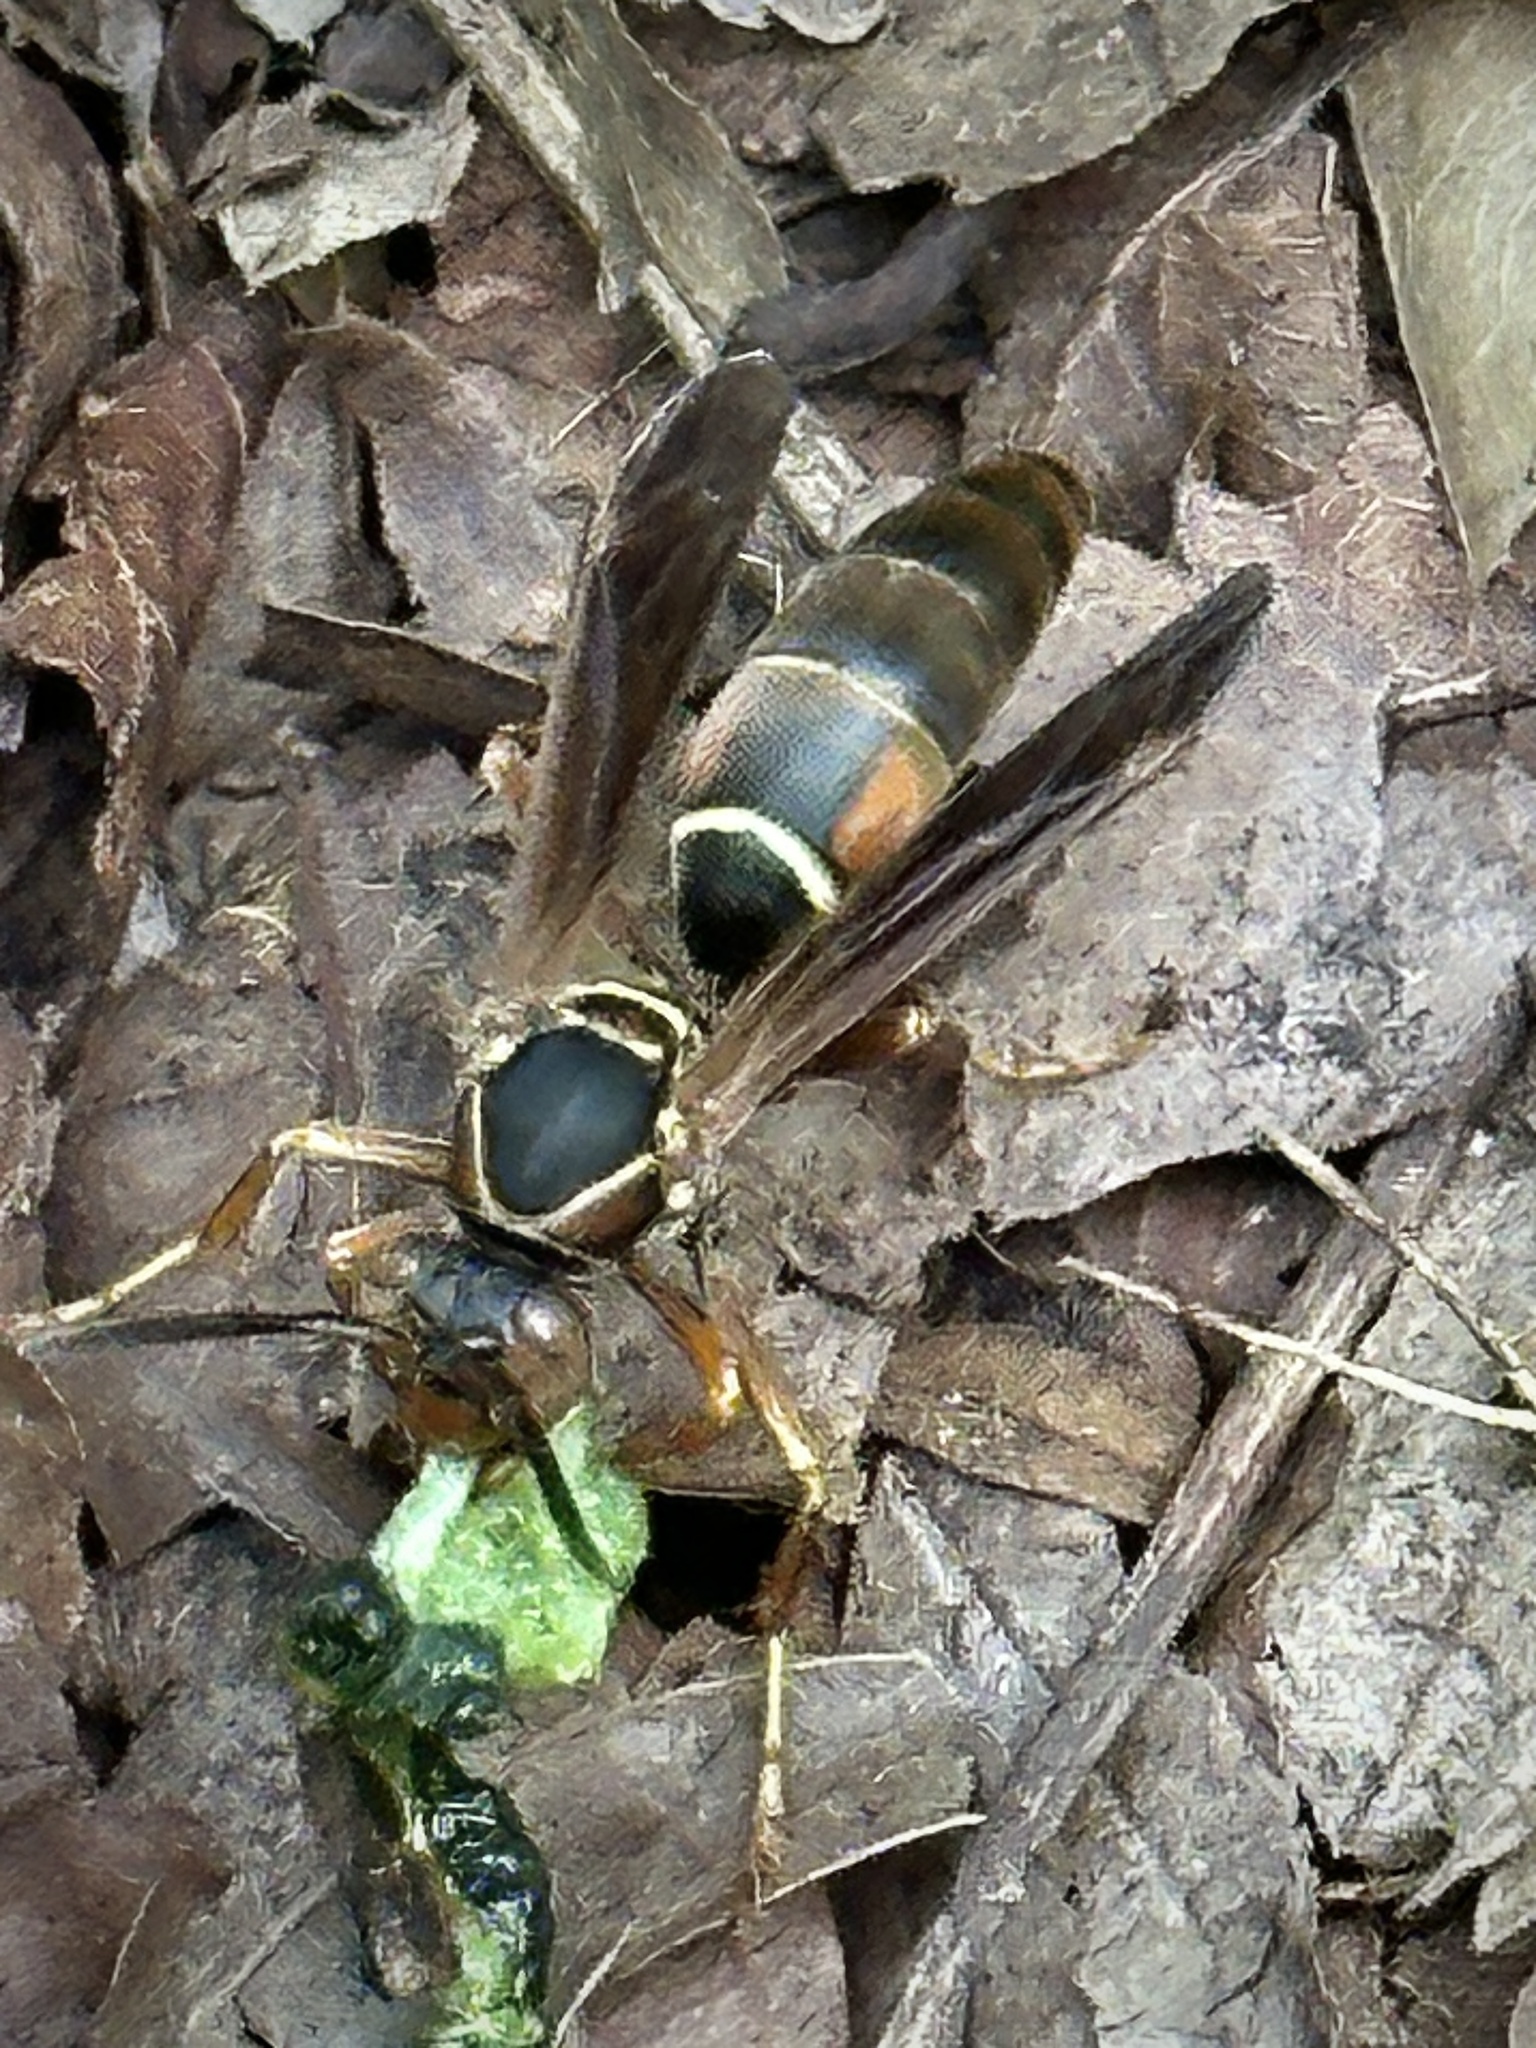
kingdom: Animalia
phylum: Arthropoda
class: Insecta
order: Hymenoptera
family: Eumenidae
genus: Polistes
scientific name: Polistes fuscatus
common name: Dark paper wasp
